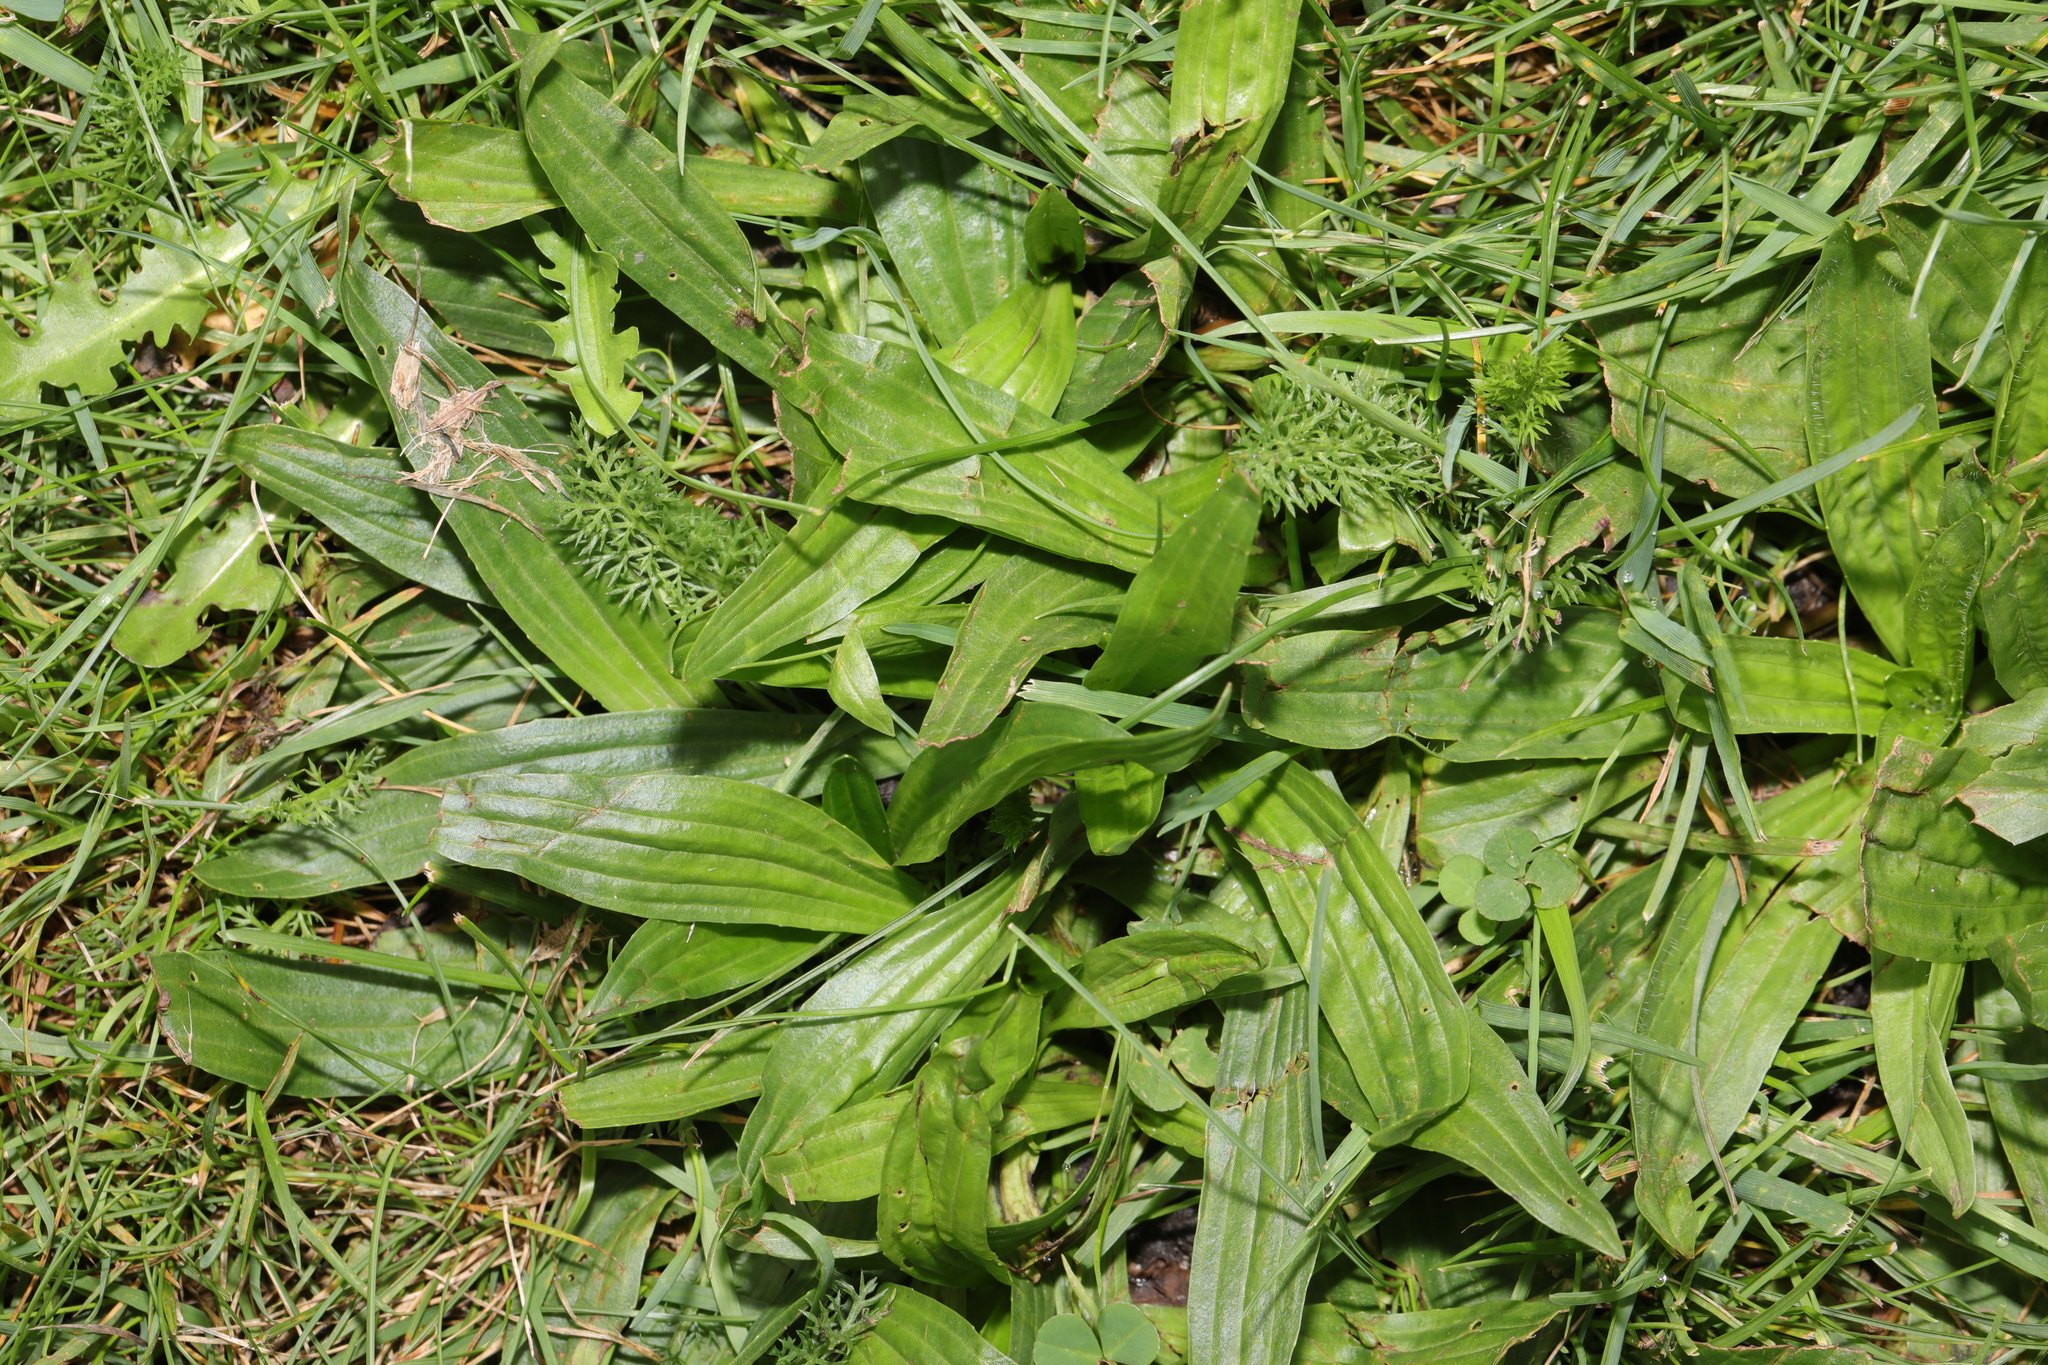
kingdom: Plantae
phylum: Tracheophyta
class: Magnoliopsida
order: Lamiales
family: Plantaginaceae
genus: Plantago
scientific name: Plantago lanceolata
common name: Ribwort plantain
